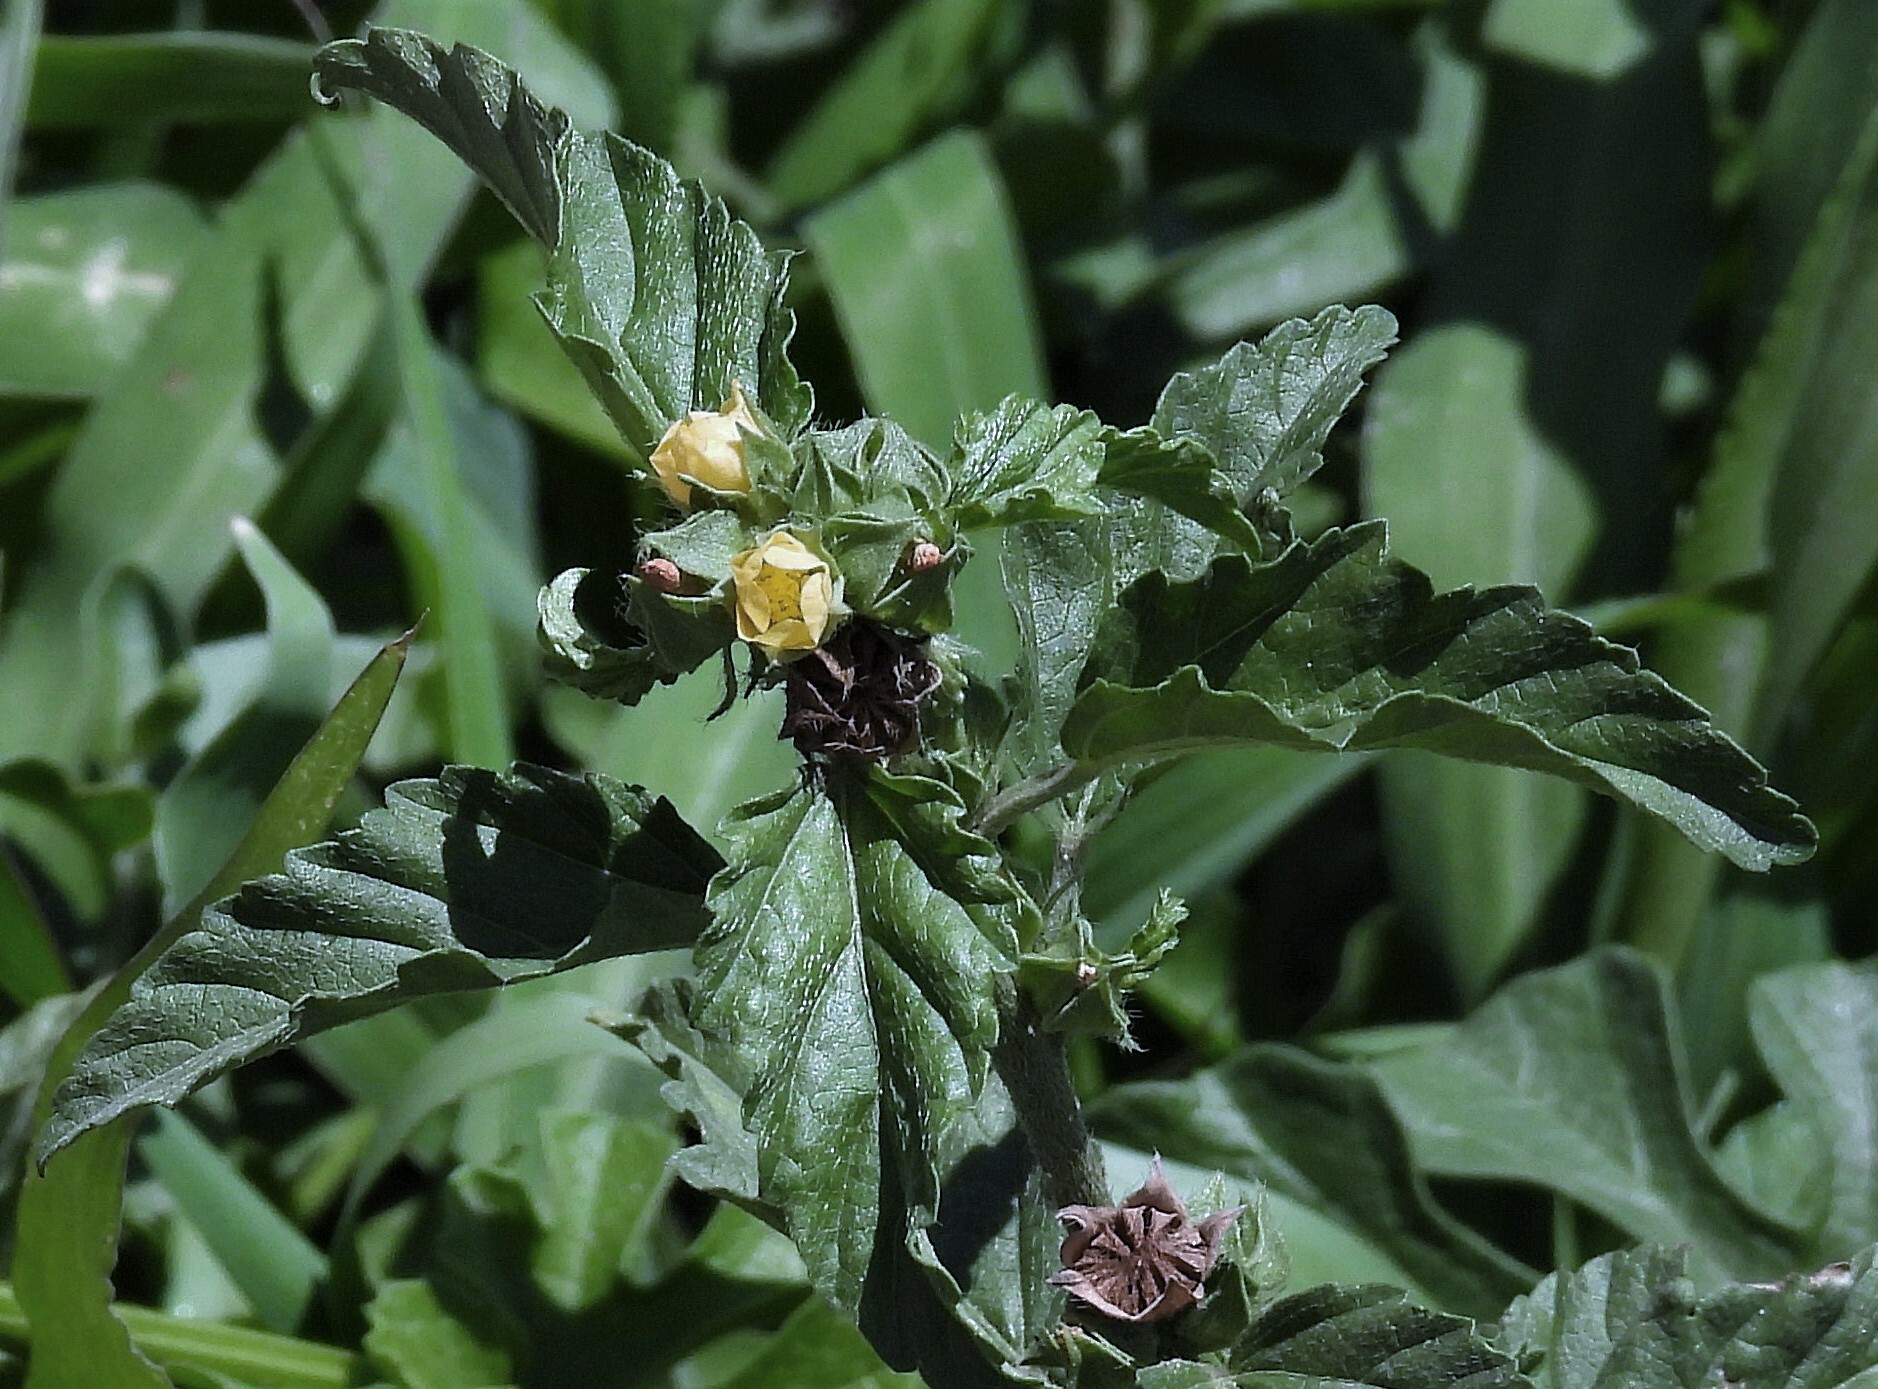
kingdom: Plantae
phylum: Tracheophyta
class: Magnoliopsida
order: Malvales
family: Malvaceae
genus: Malvastrum
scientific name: Malvastrum coromandelianum
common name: Threelobe false mallow
